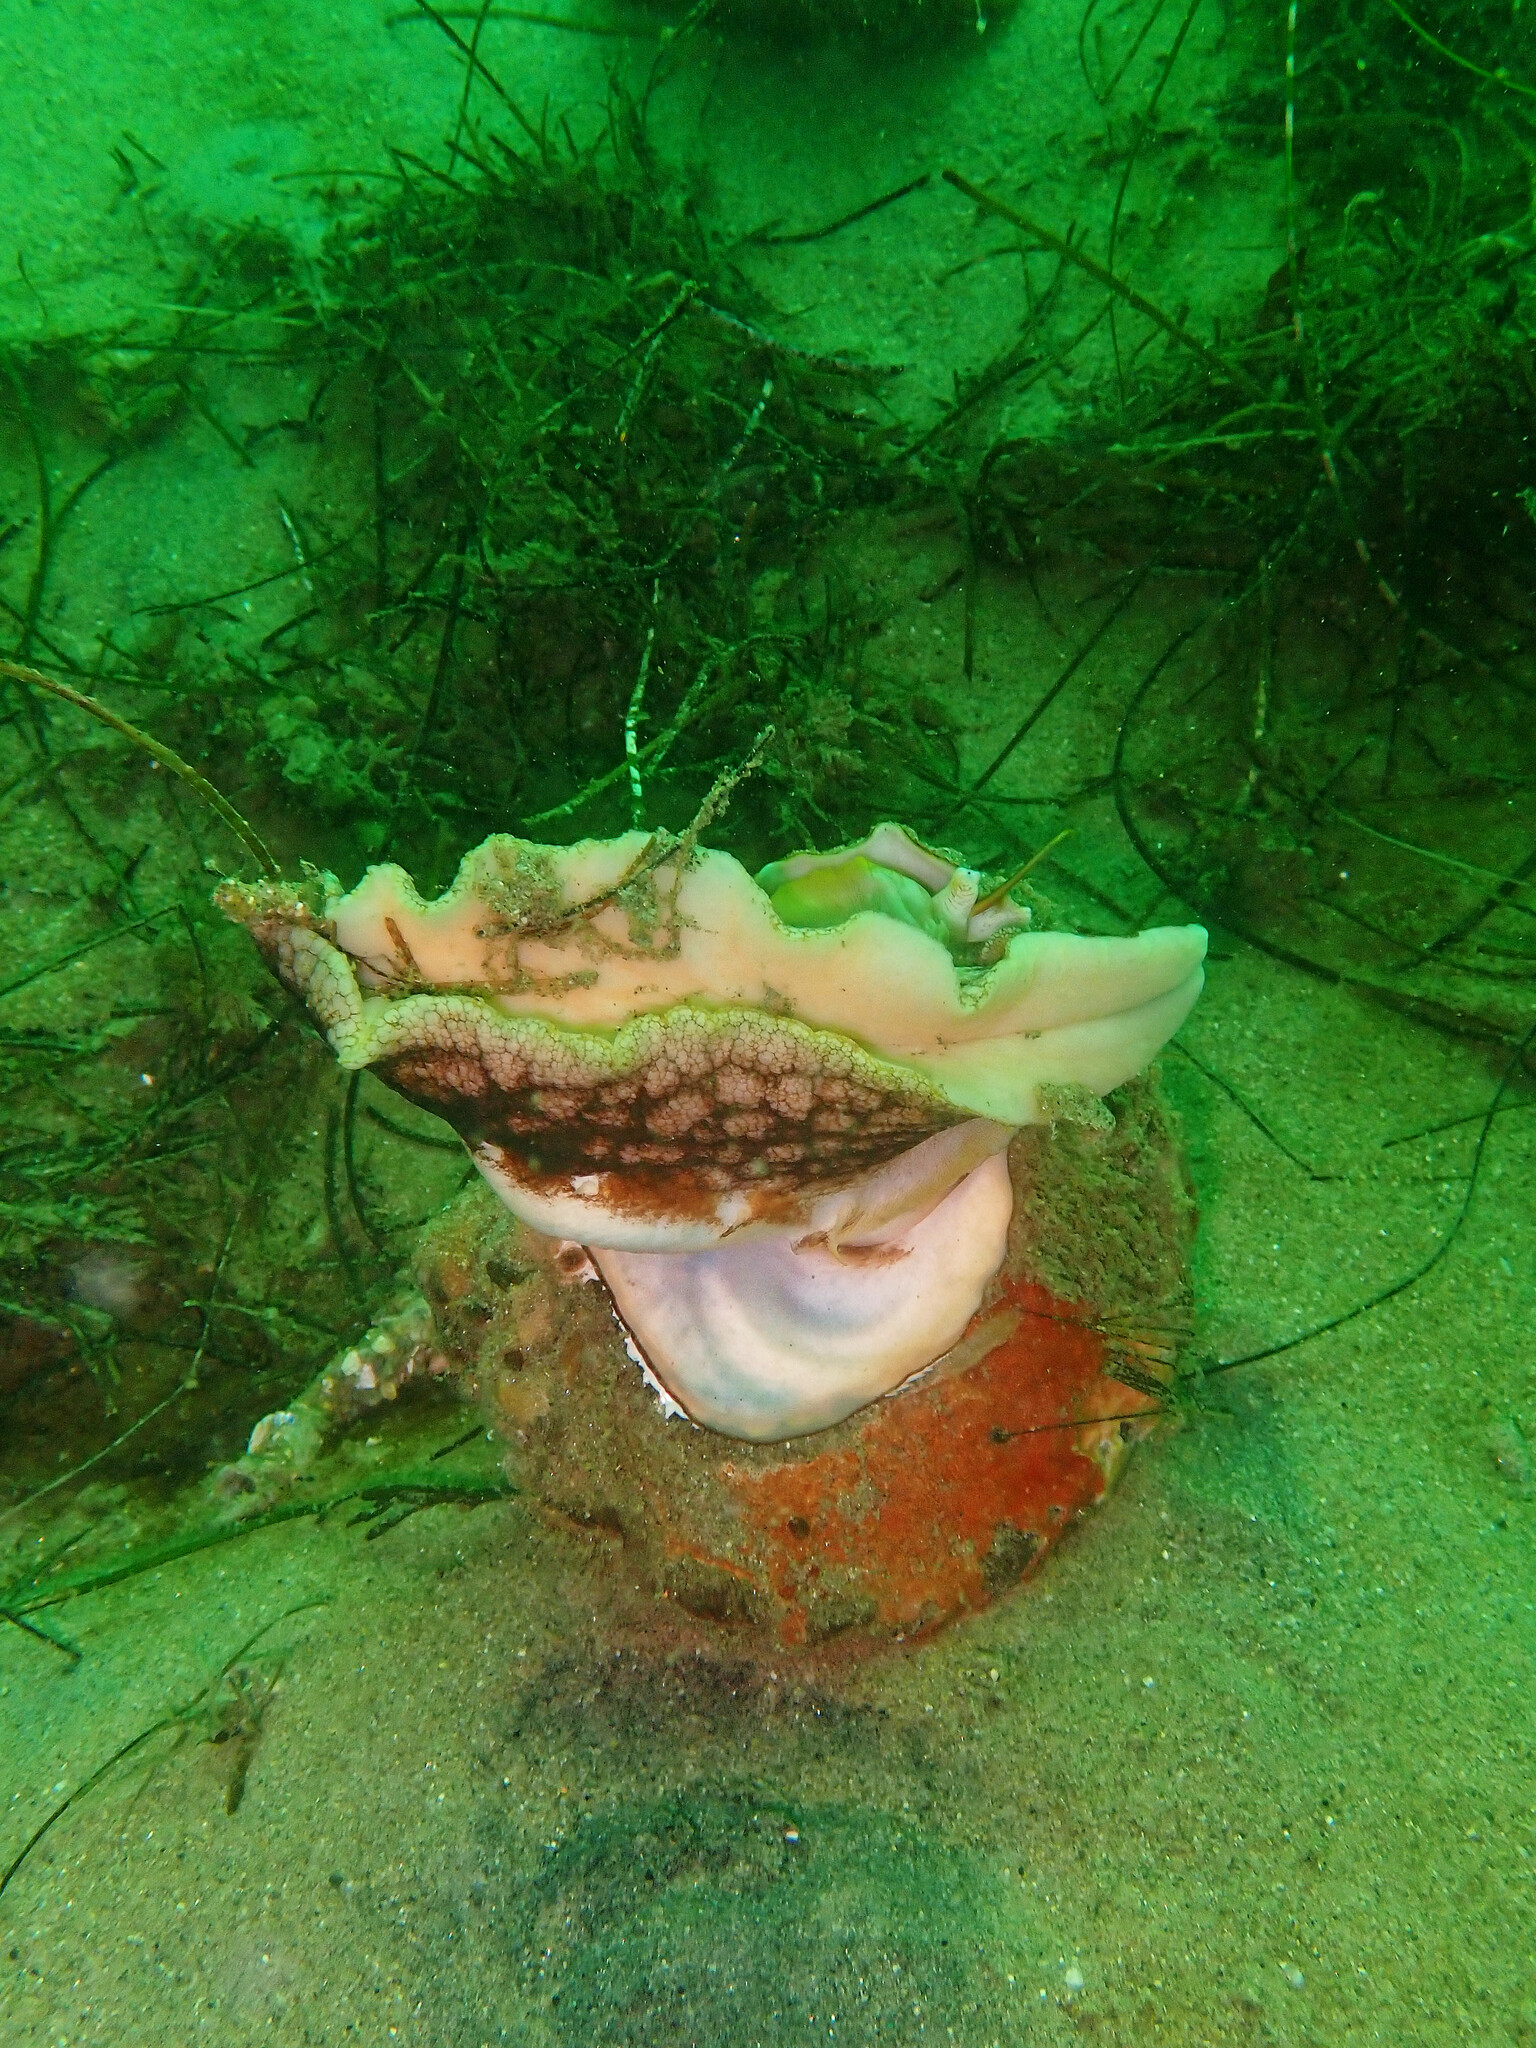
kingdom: Animalia
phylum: Mollusca
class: Gastropoda
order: Trochida
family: Turbinidae
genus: Megastraea
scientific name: Megastraea undosa
